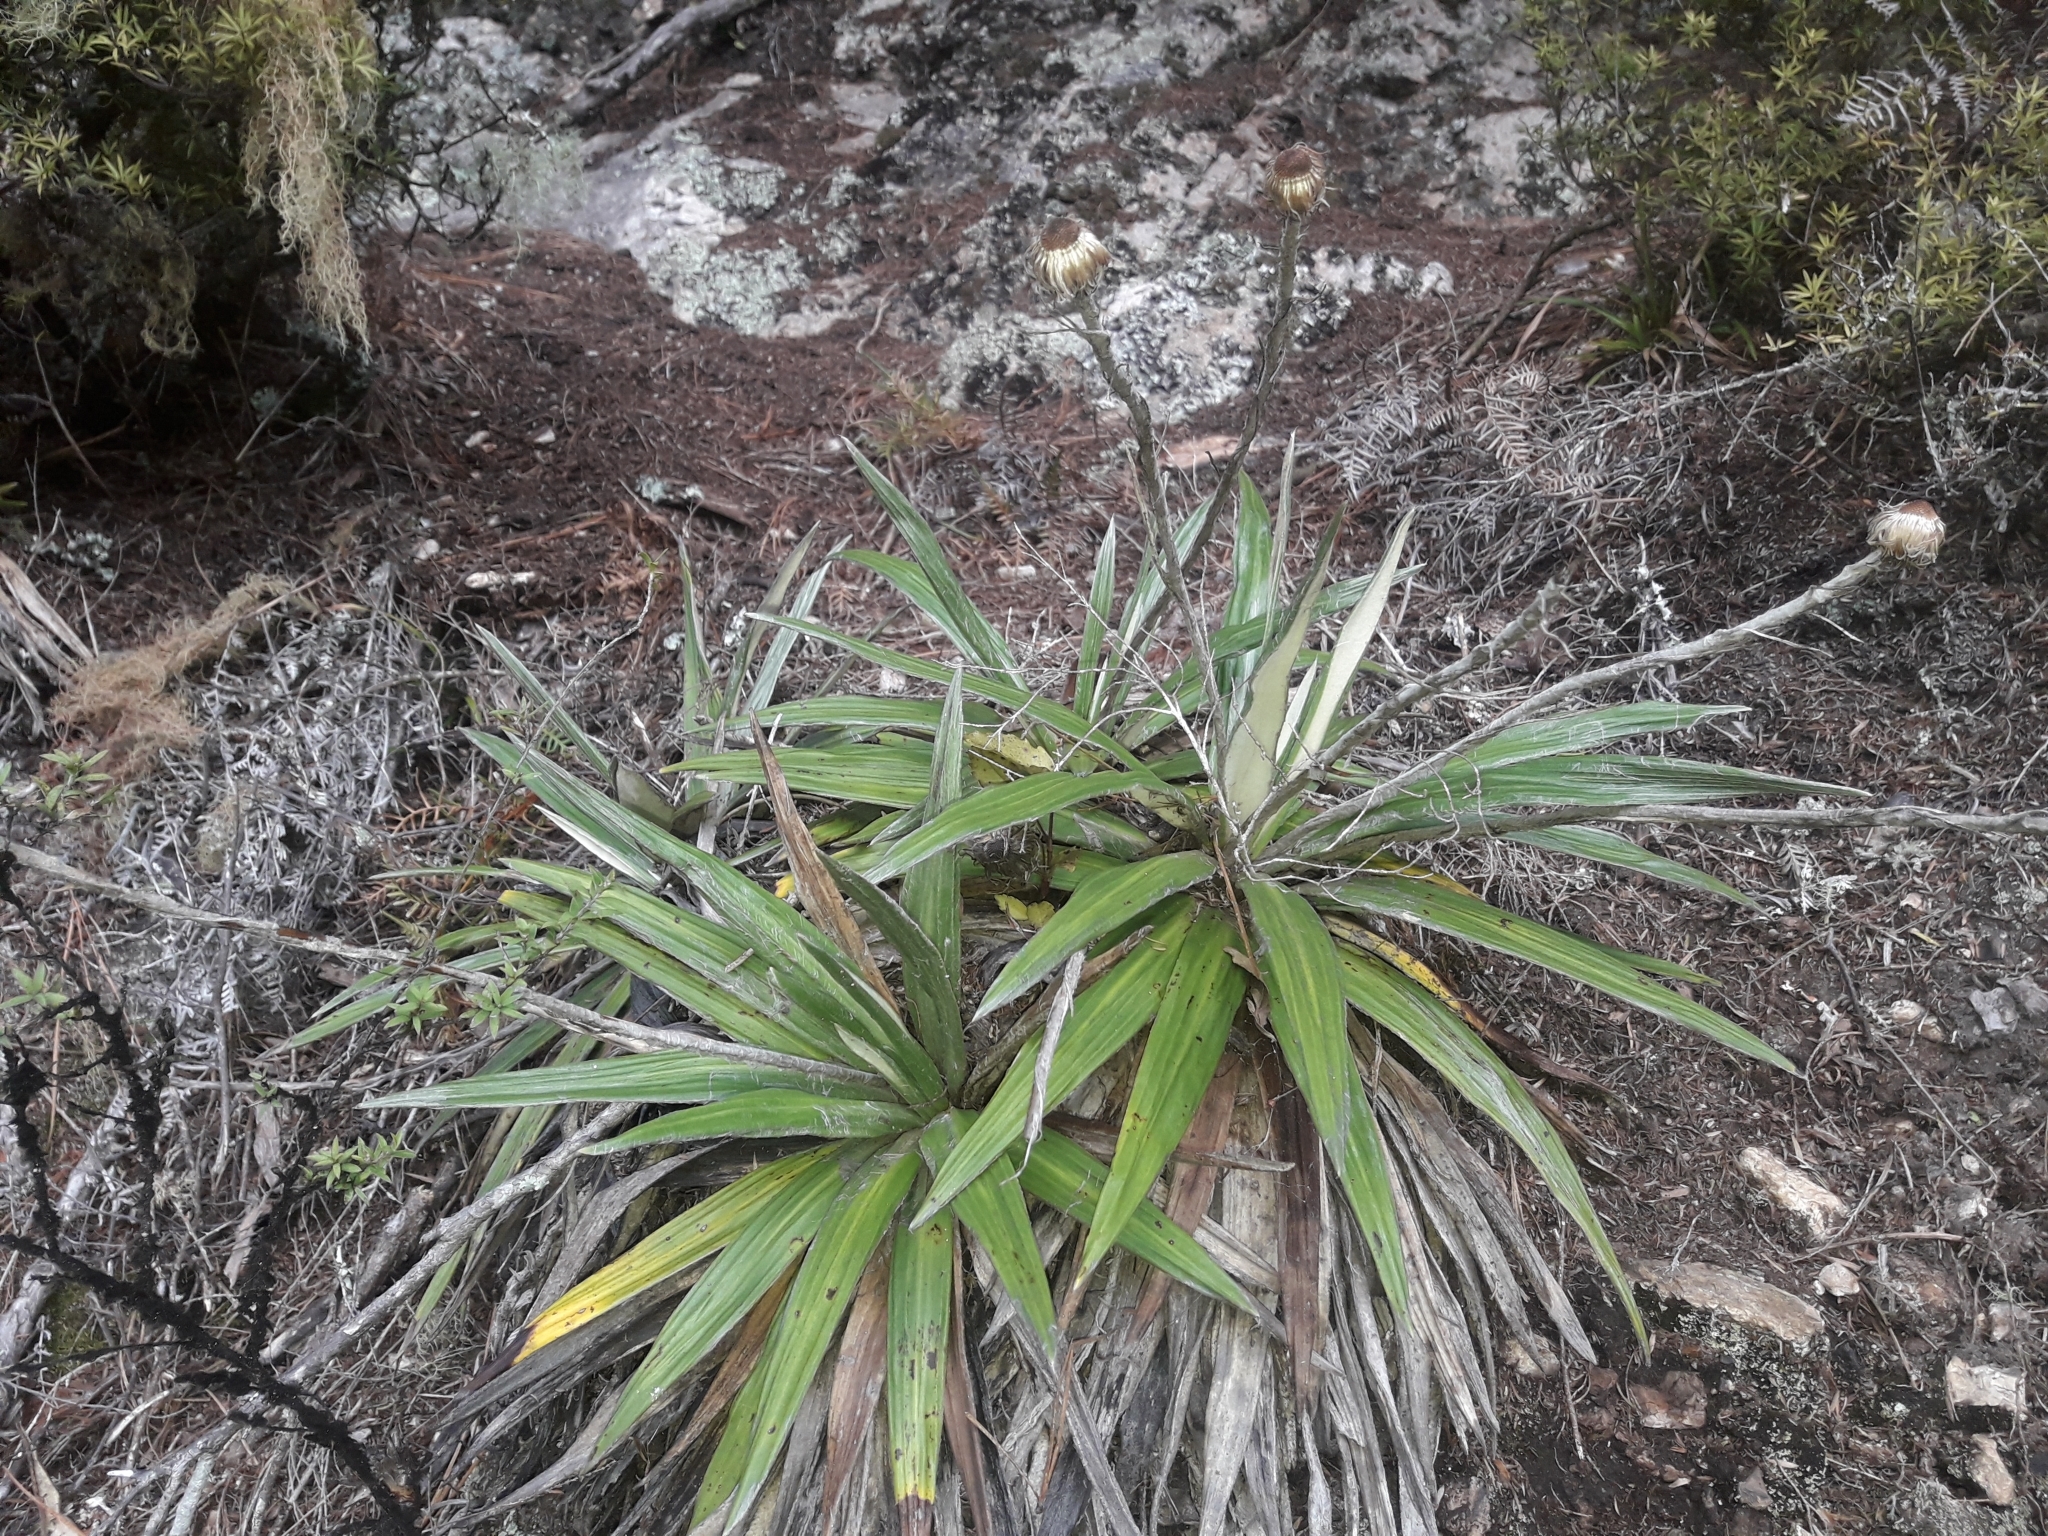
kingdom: Plantae
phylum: Tracheophyta
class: Magnoliopsida
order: Asterales
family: Asteraceae
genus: Celmisia
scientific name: Celmisia spectabilis
